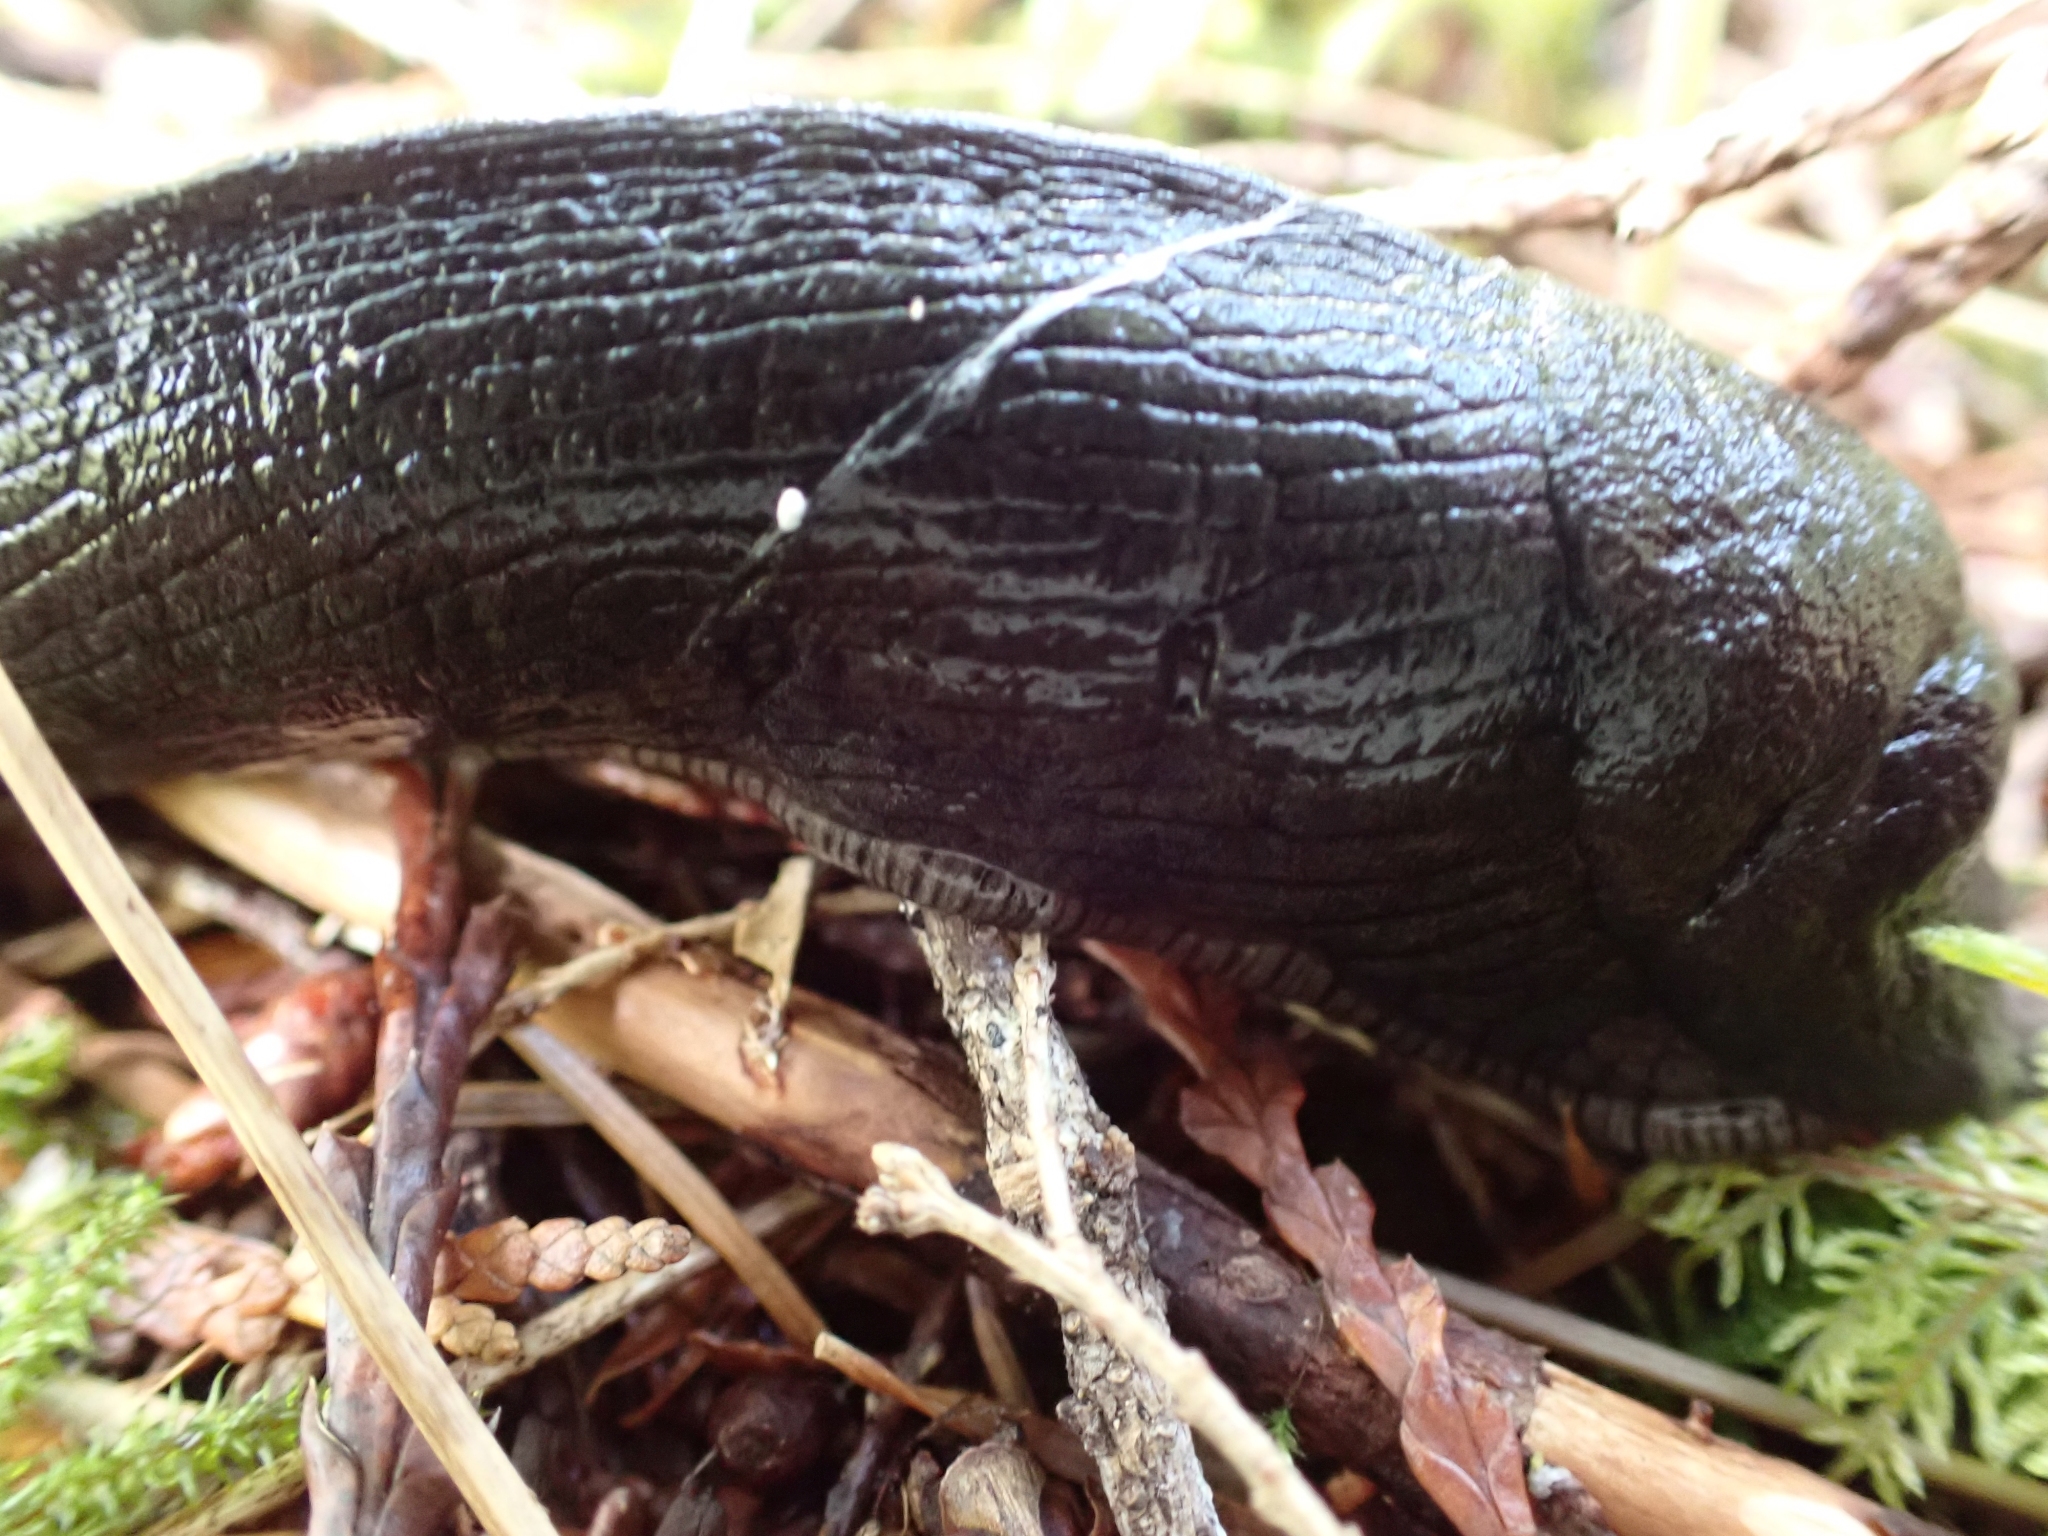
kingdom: Animalia
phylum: Mollusca
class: Gastropoda
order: Stylommatophora
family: Ariolimacidae
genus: Ariolimax
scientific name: Ariolimax columbianus
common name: Pacific banana slug
